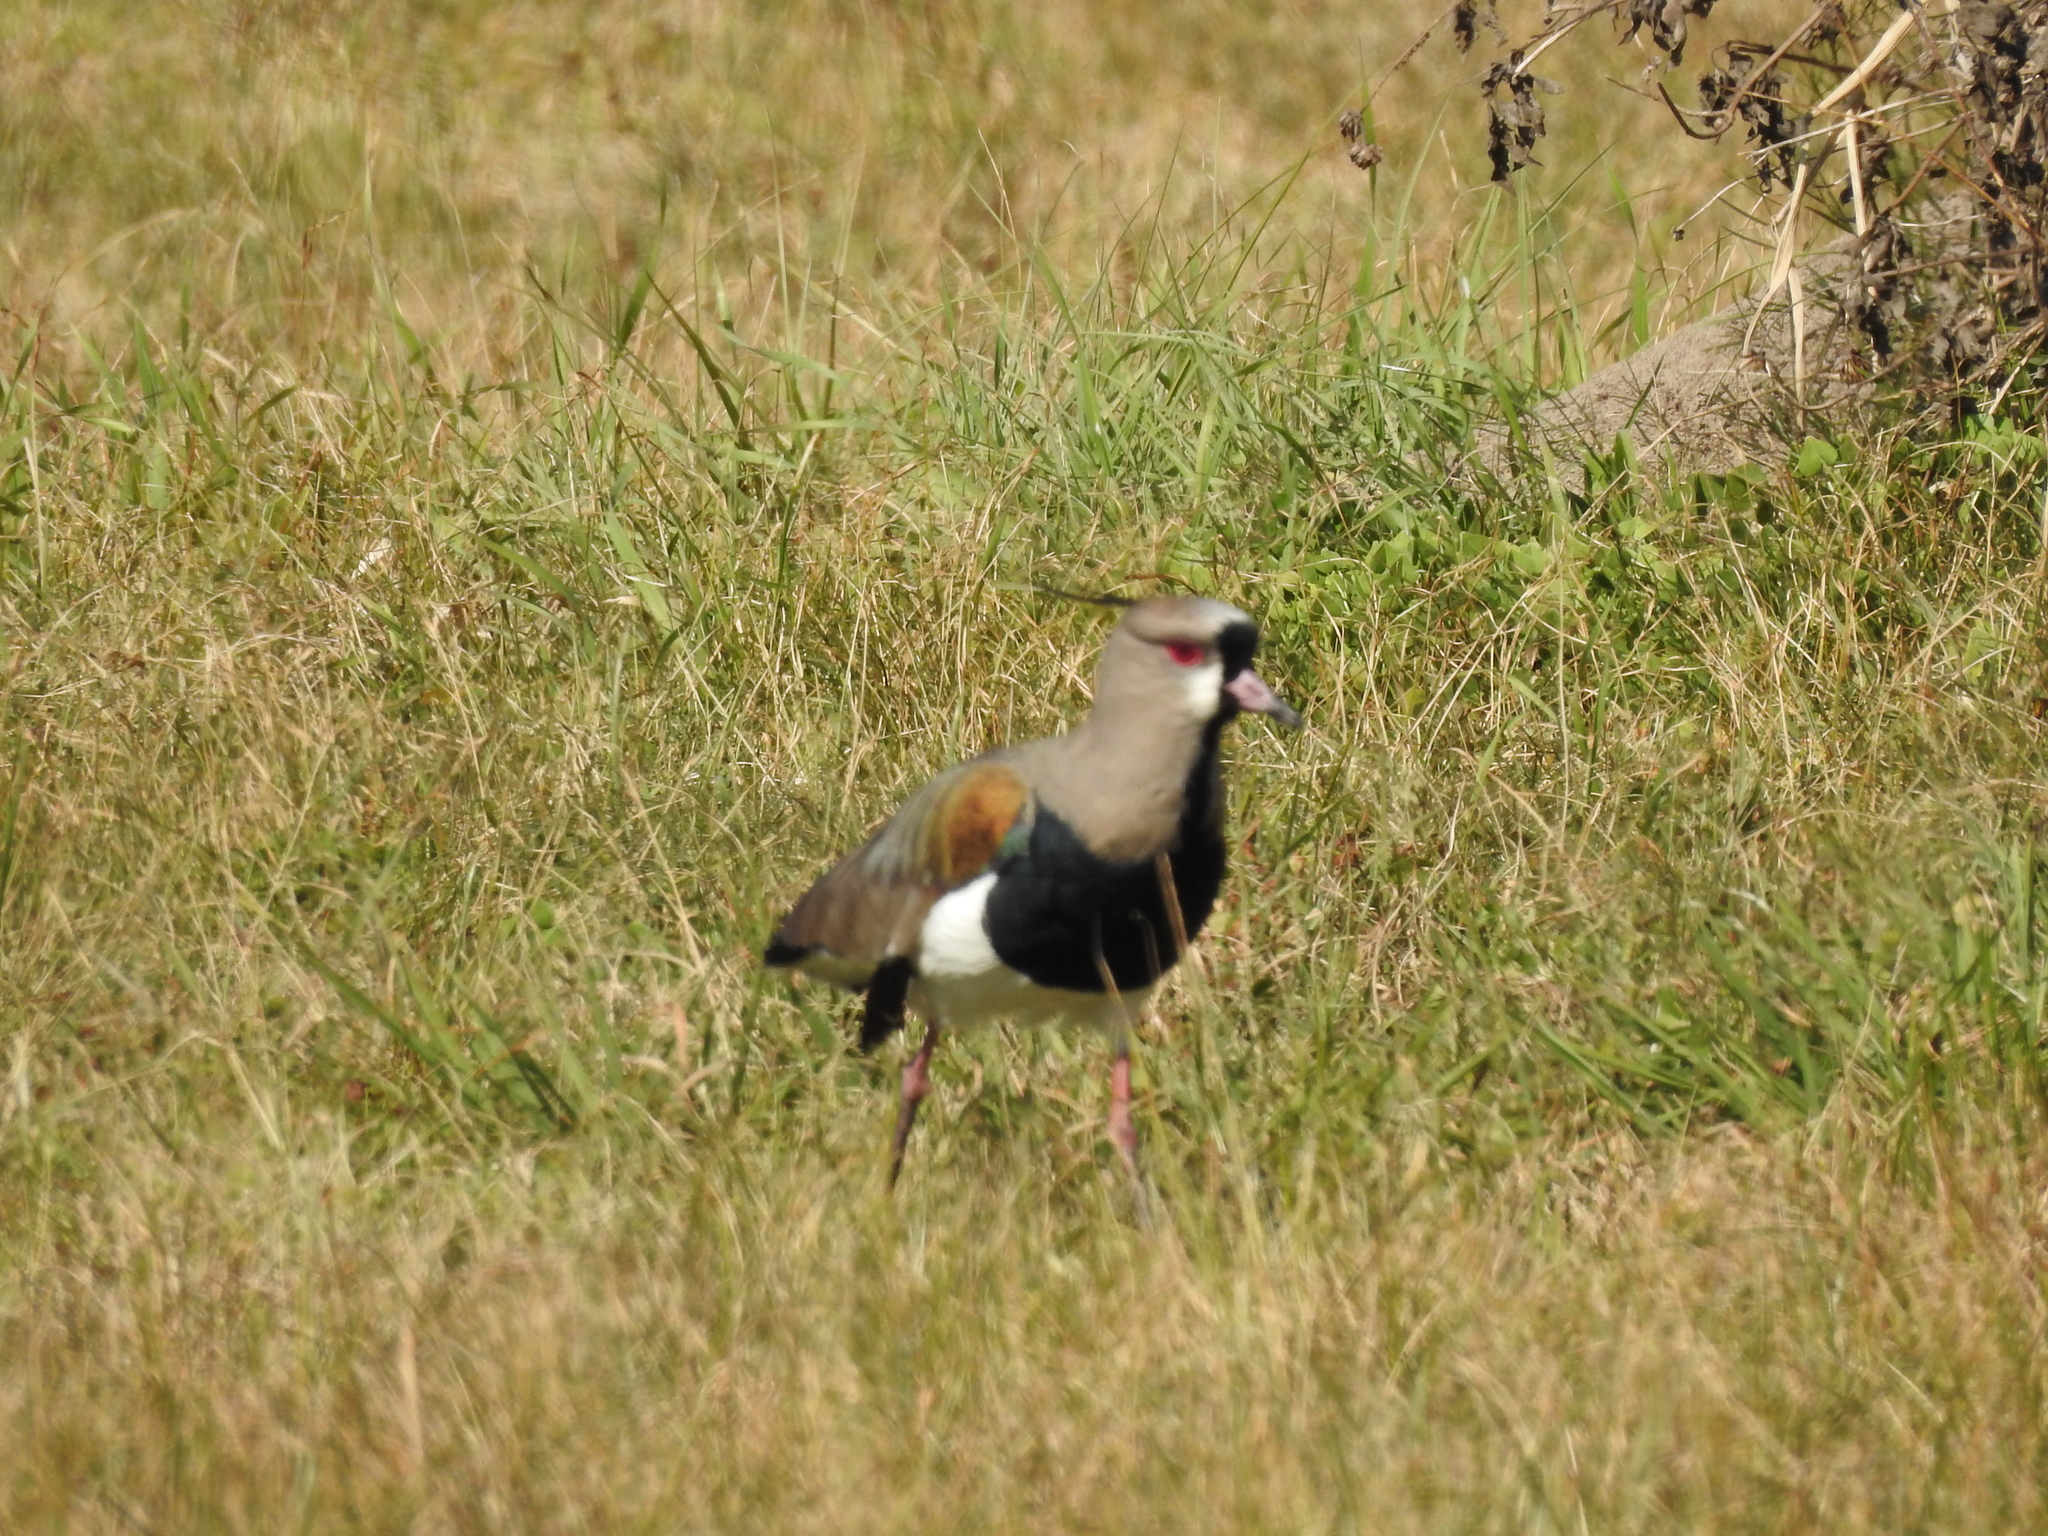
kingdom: Animalia
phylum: Chordata
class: Aves
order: Charadriiformes
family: Charadriidae
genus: Vanellus
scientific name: Vanellus chilensis
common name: Southern lapwing
